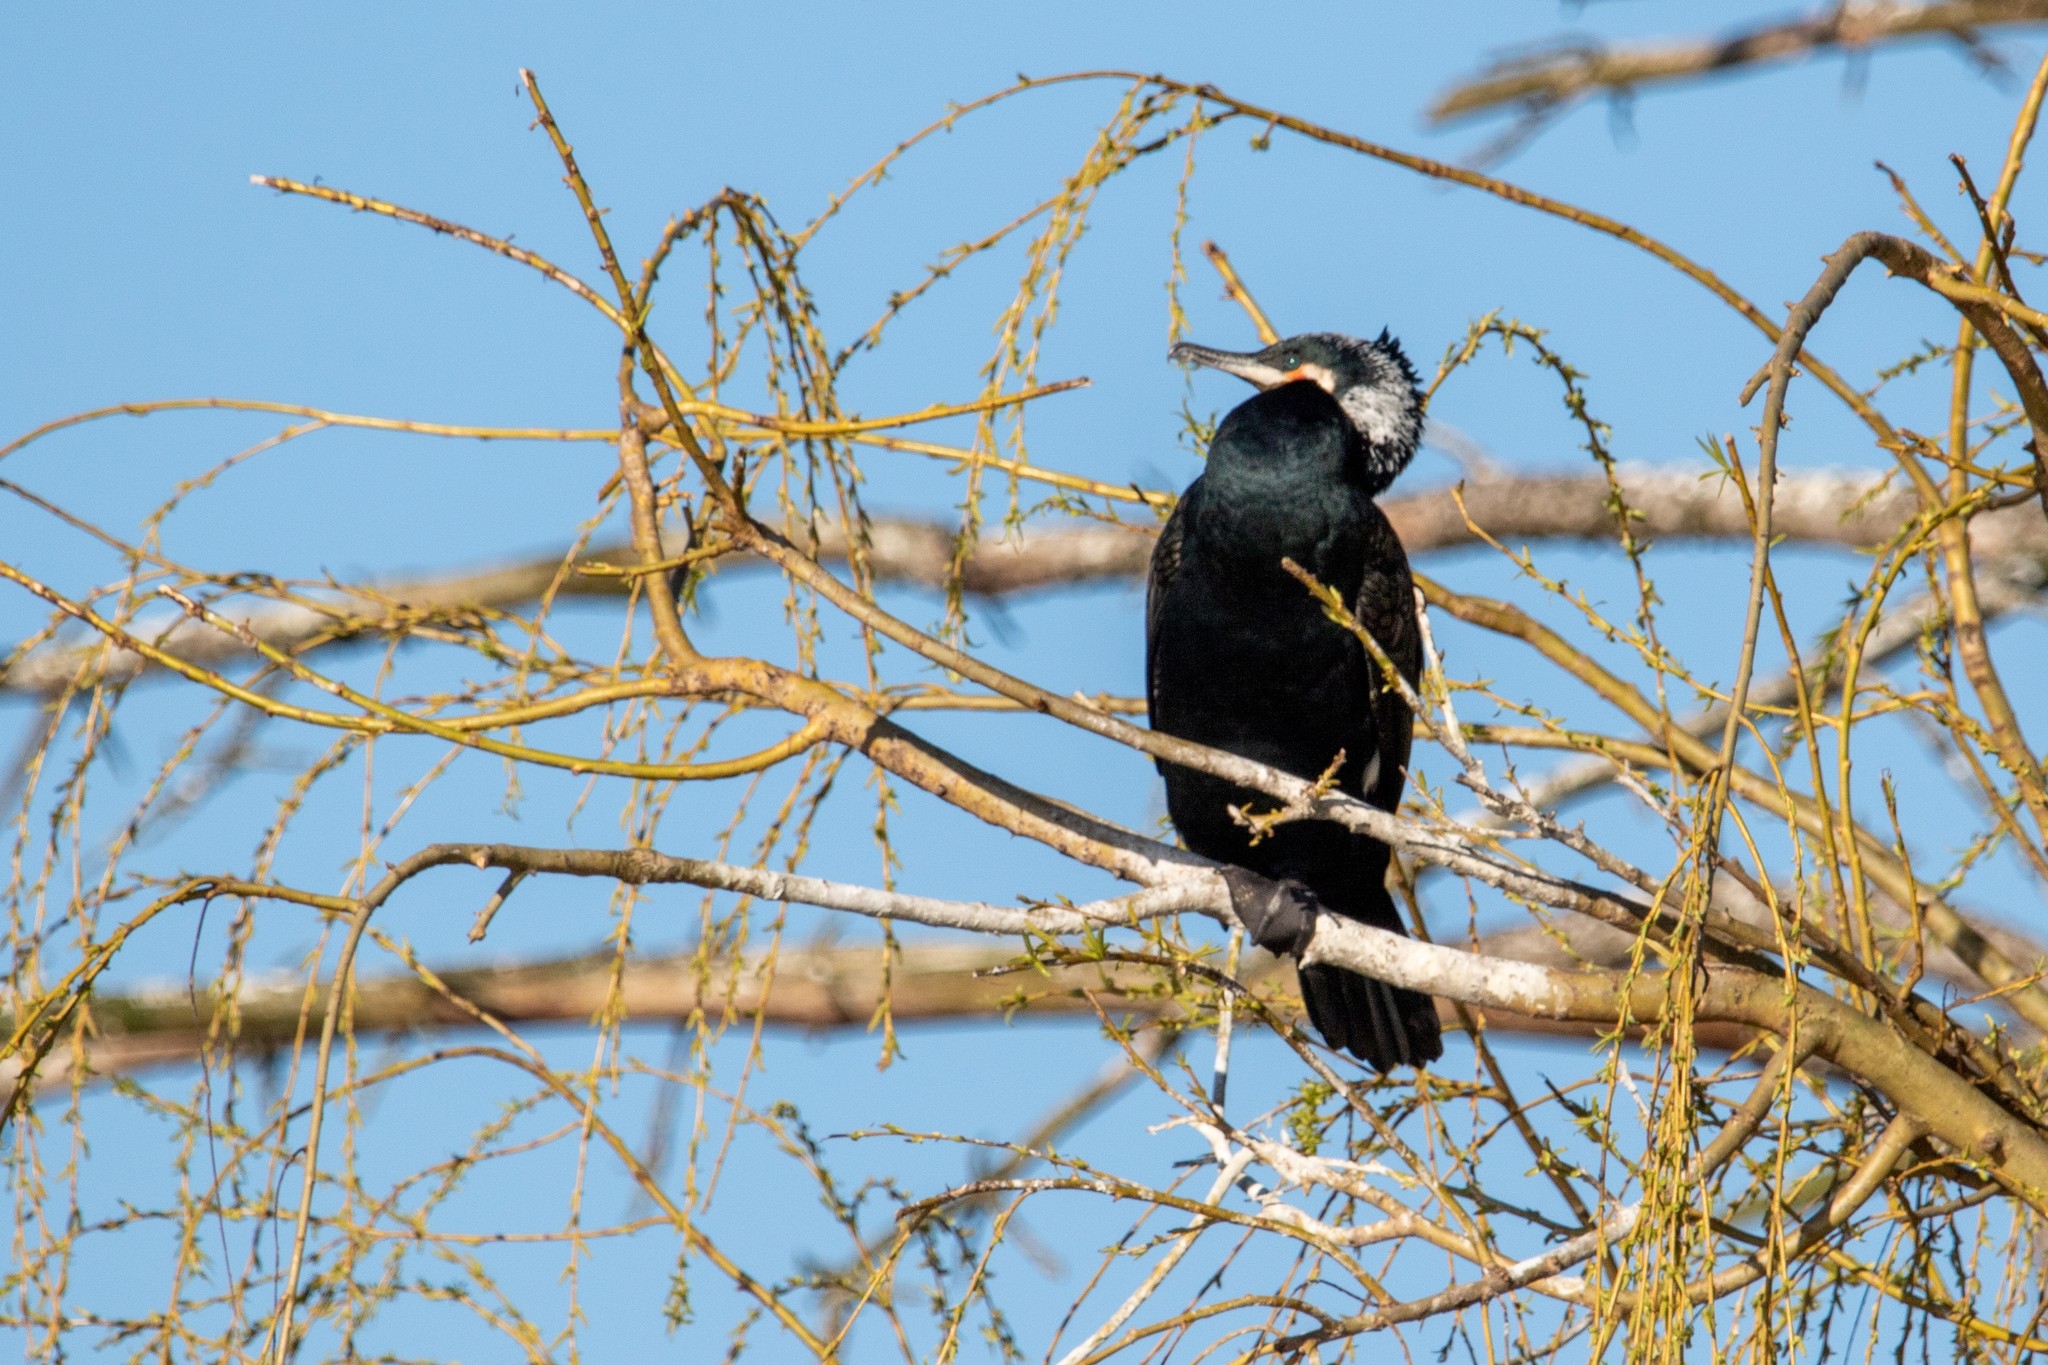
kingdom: Animalia
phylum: Chordata
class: Aves
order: Suliformes
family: Phalacrocoracidae
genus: Phalacrocorax
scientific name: Phalacrocorax carbo
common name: Great cormorant
